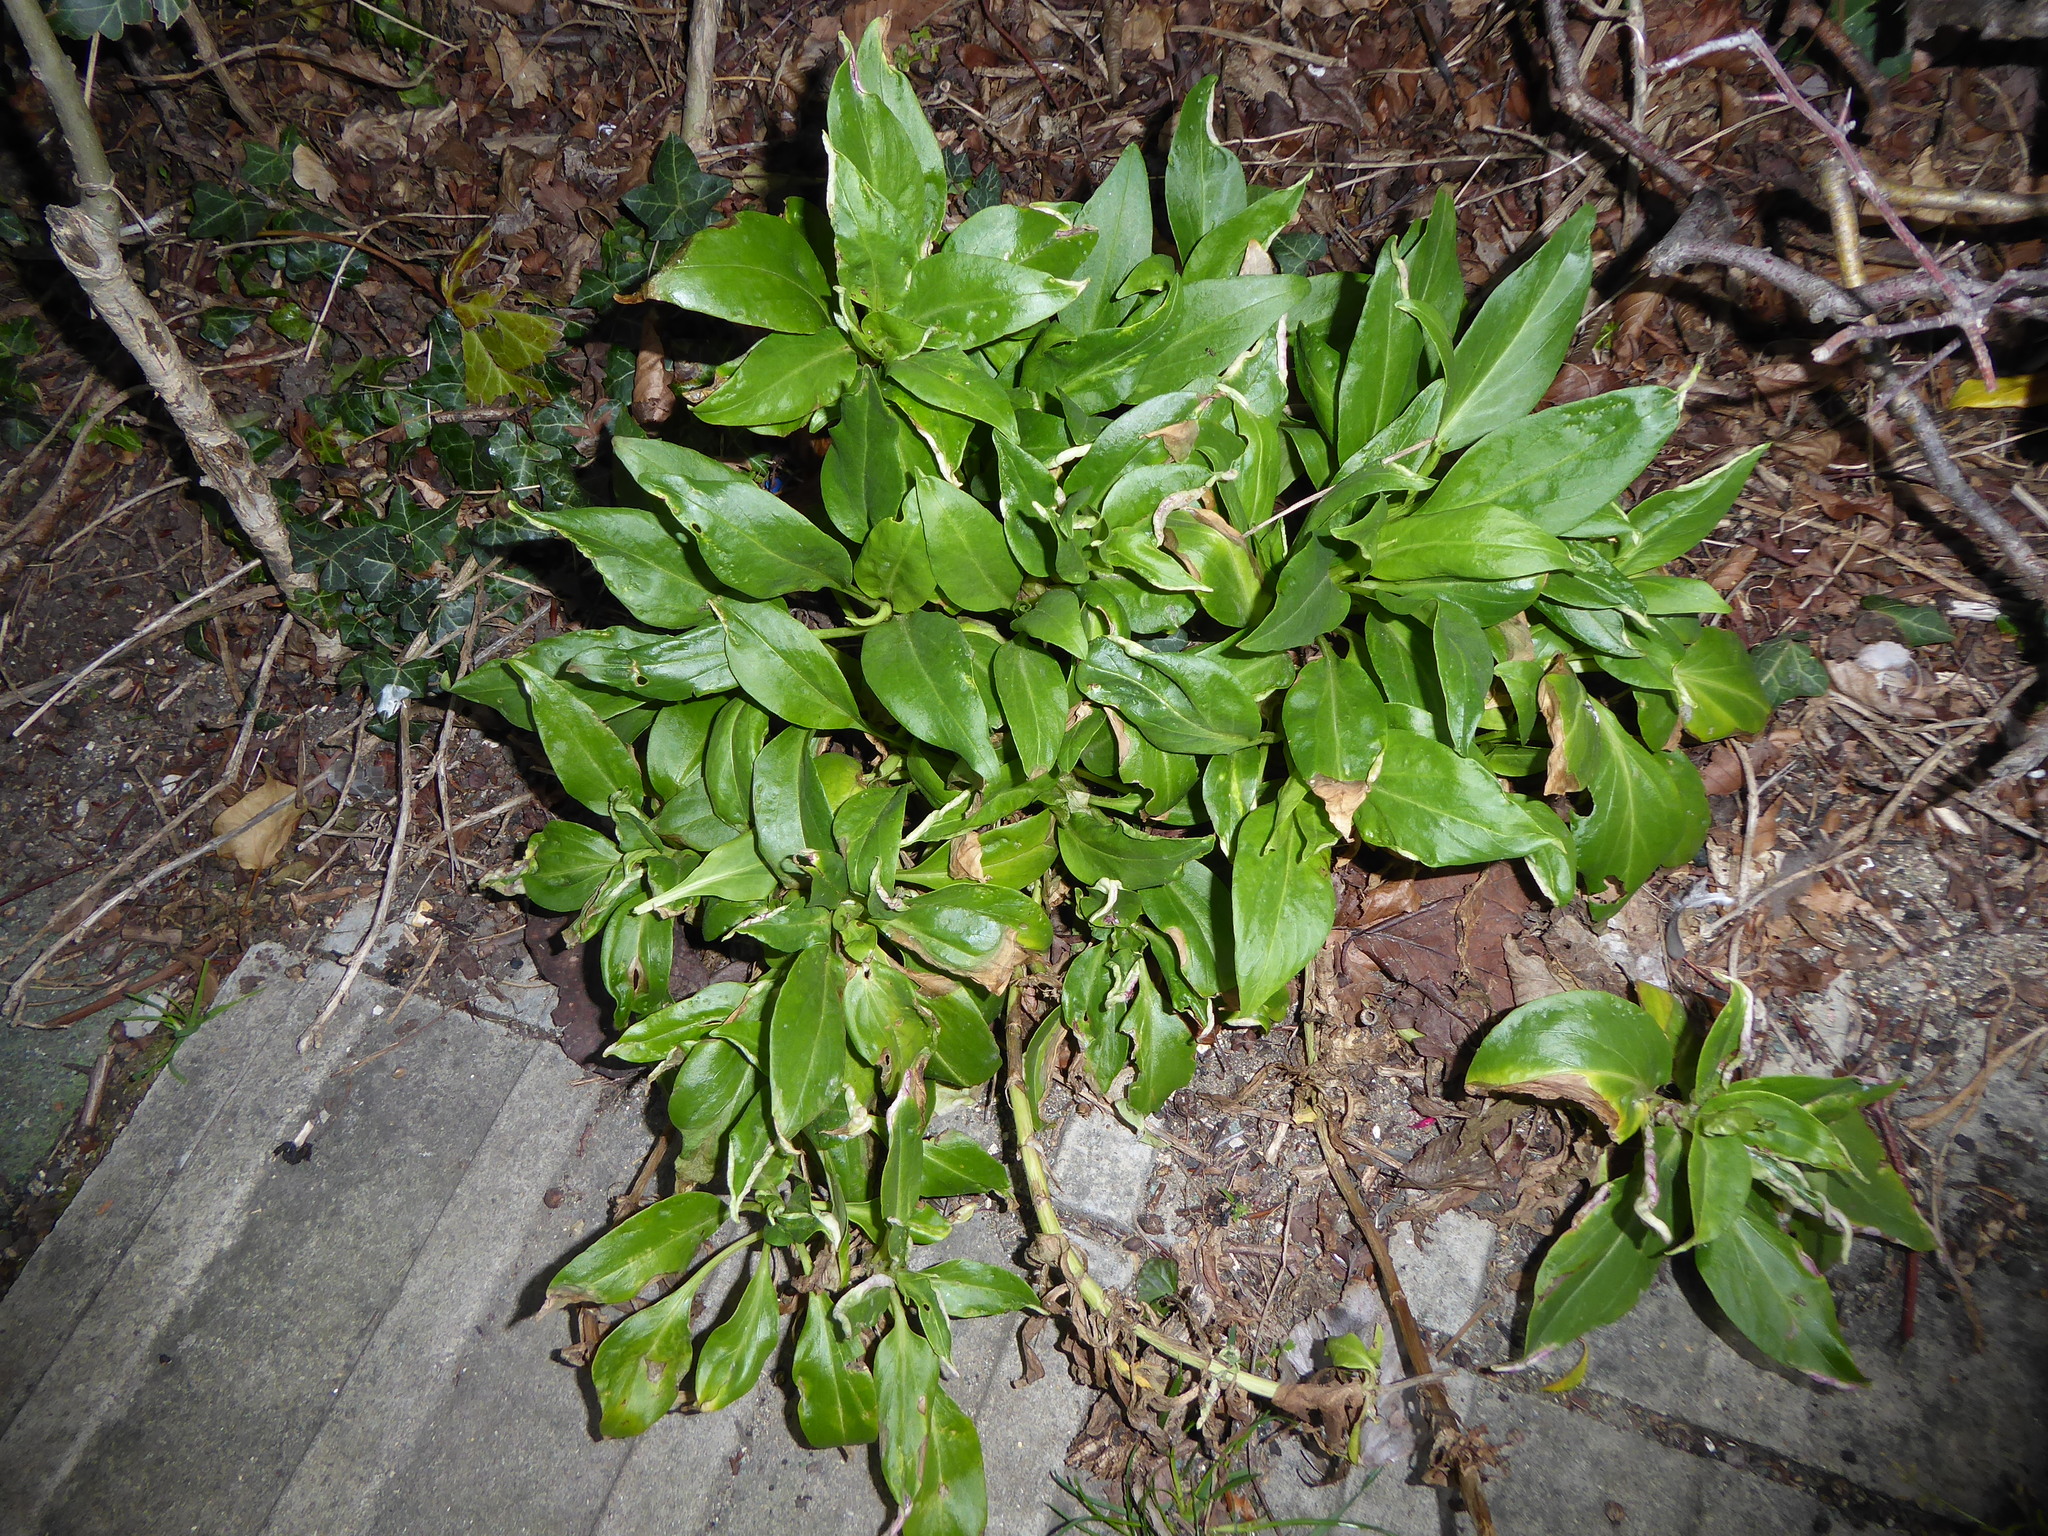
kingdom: Animalia
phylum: Arthropoda
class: Insecta
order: Hemiptera
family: Triozidae
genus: Trioza
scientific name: Trioza centranthi
